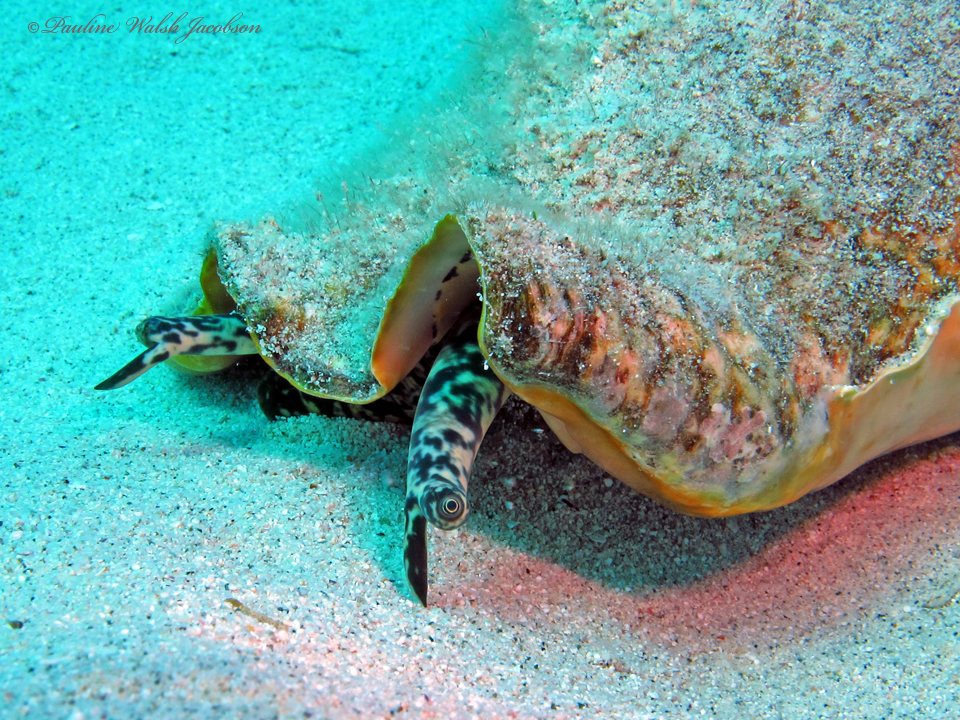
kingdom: Animalia
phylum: Mollusca
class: Gastropoda
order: Littorinimorpha
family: Strombidae
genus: Aliger
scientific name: Aliger gigas
